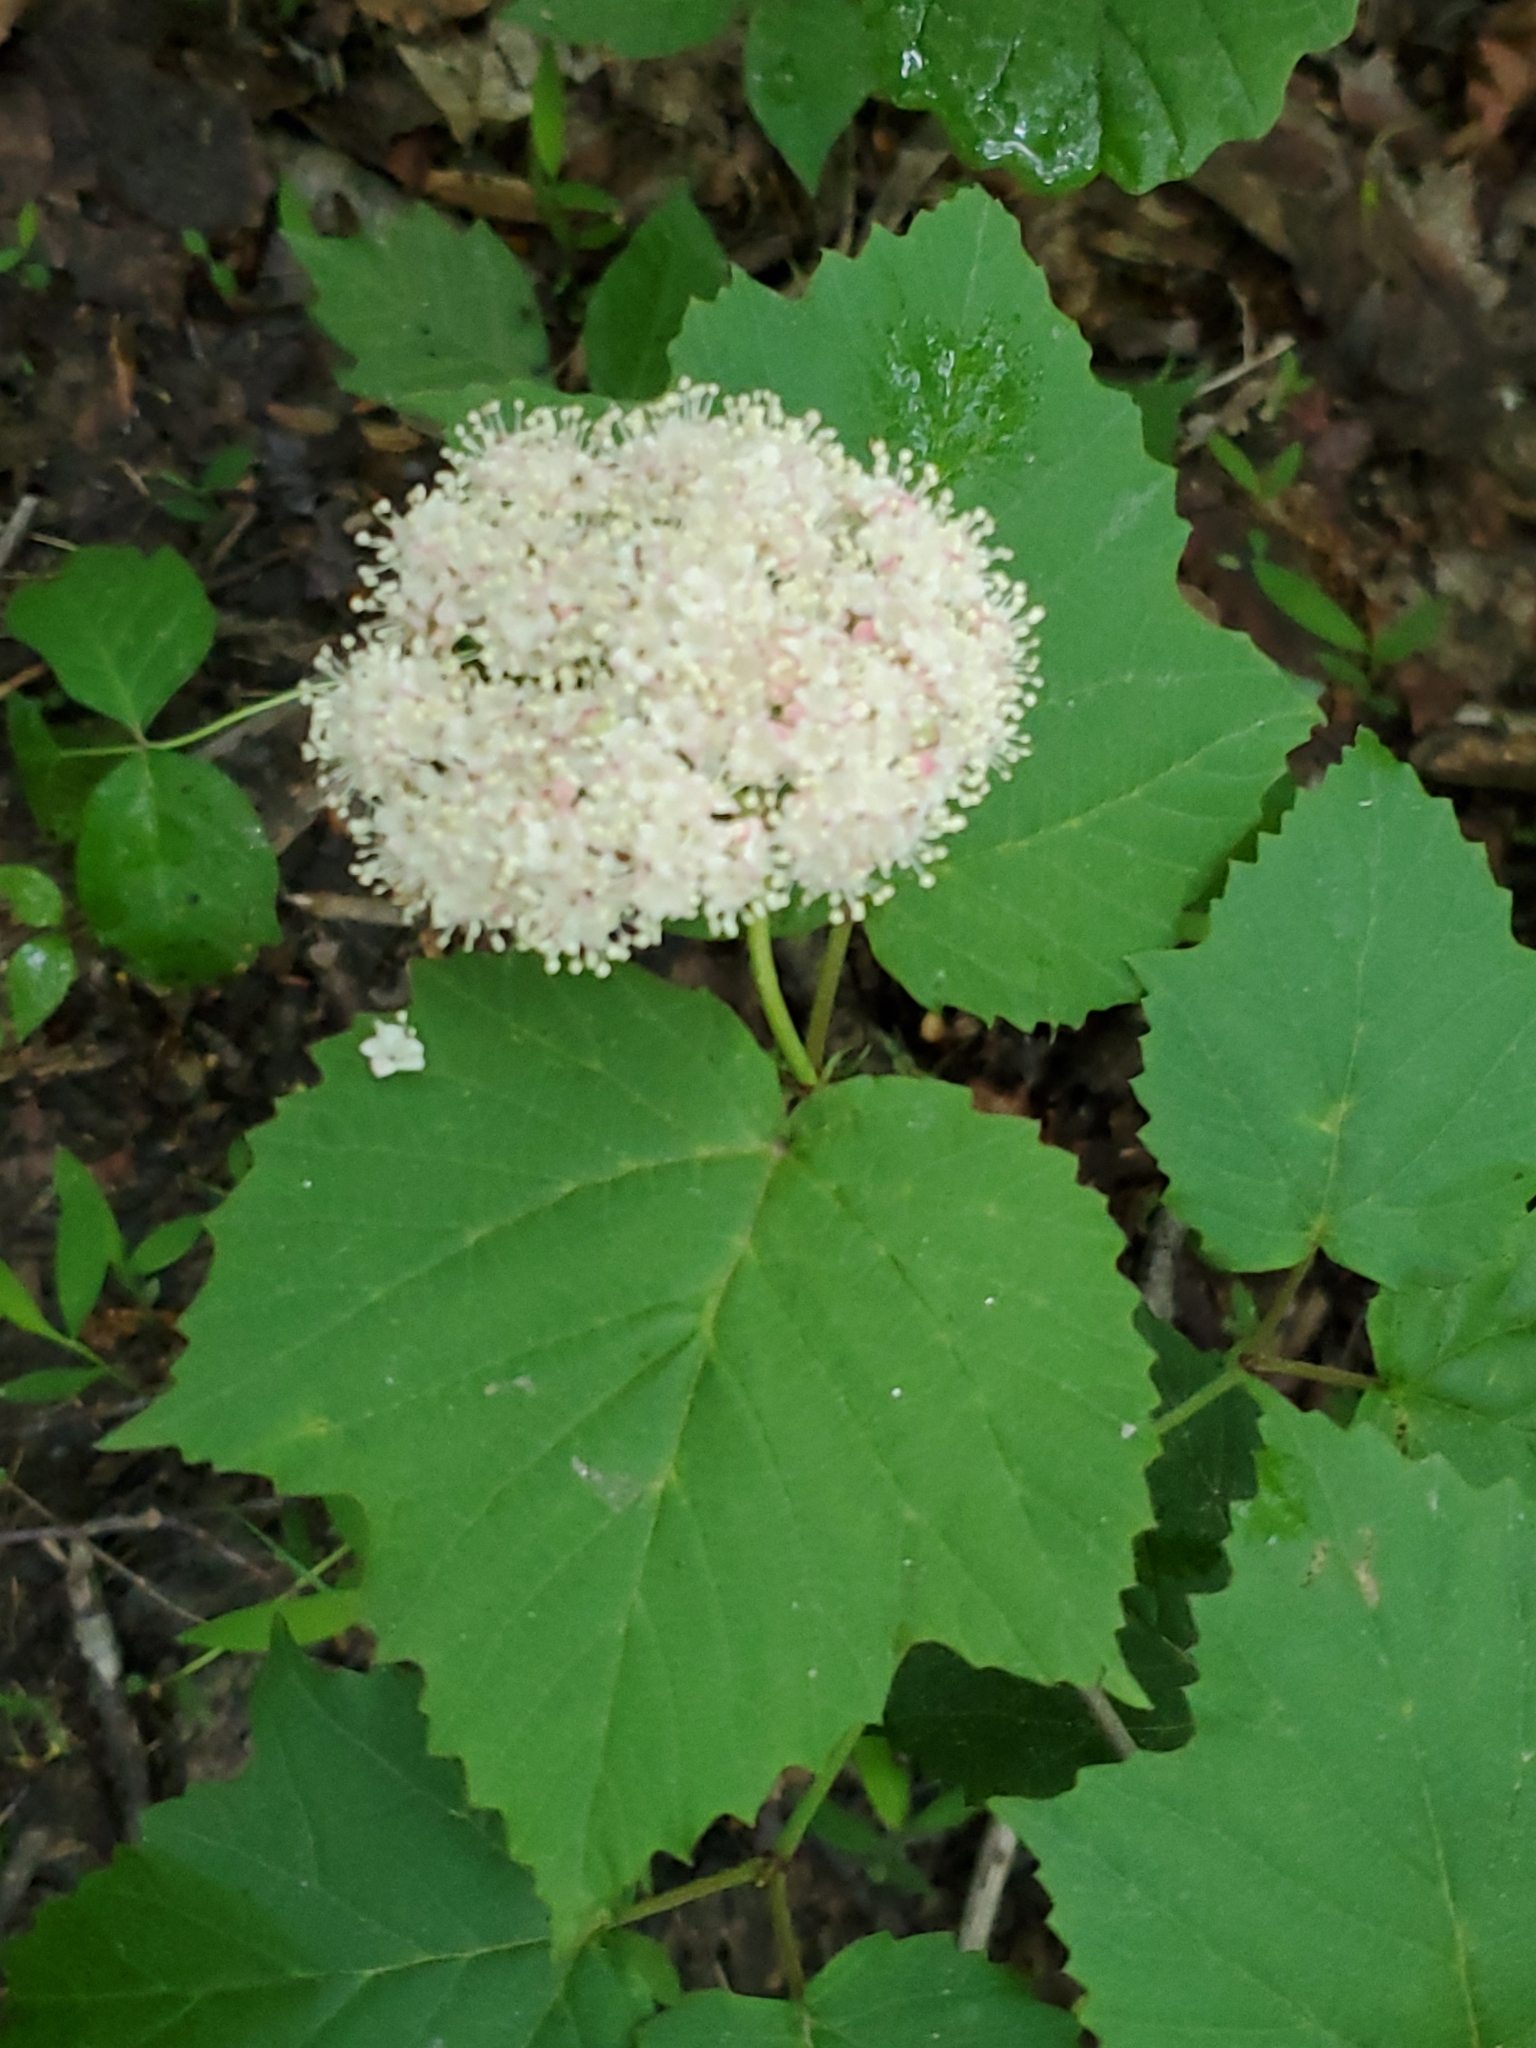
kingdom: Plantae
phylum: Tracheophyta
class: Magnoliopsida
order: Dipsacales
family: Viburnaceae
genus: Viburnum
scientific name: Viburnum acerifolium
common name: Dockmackie
